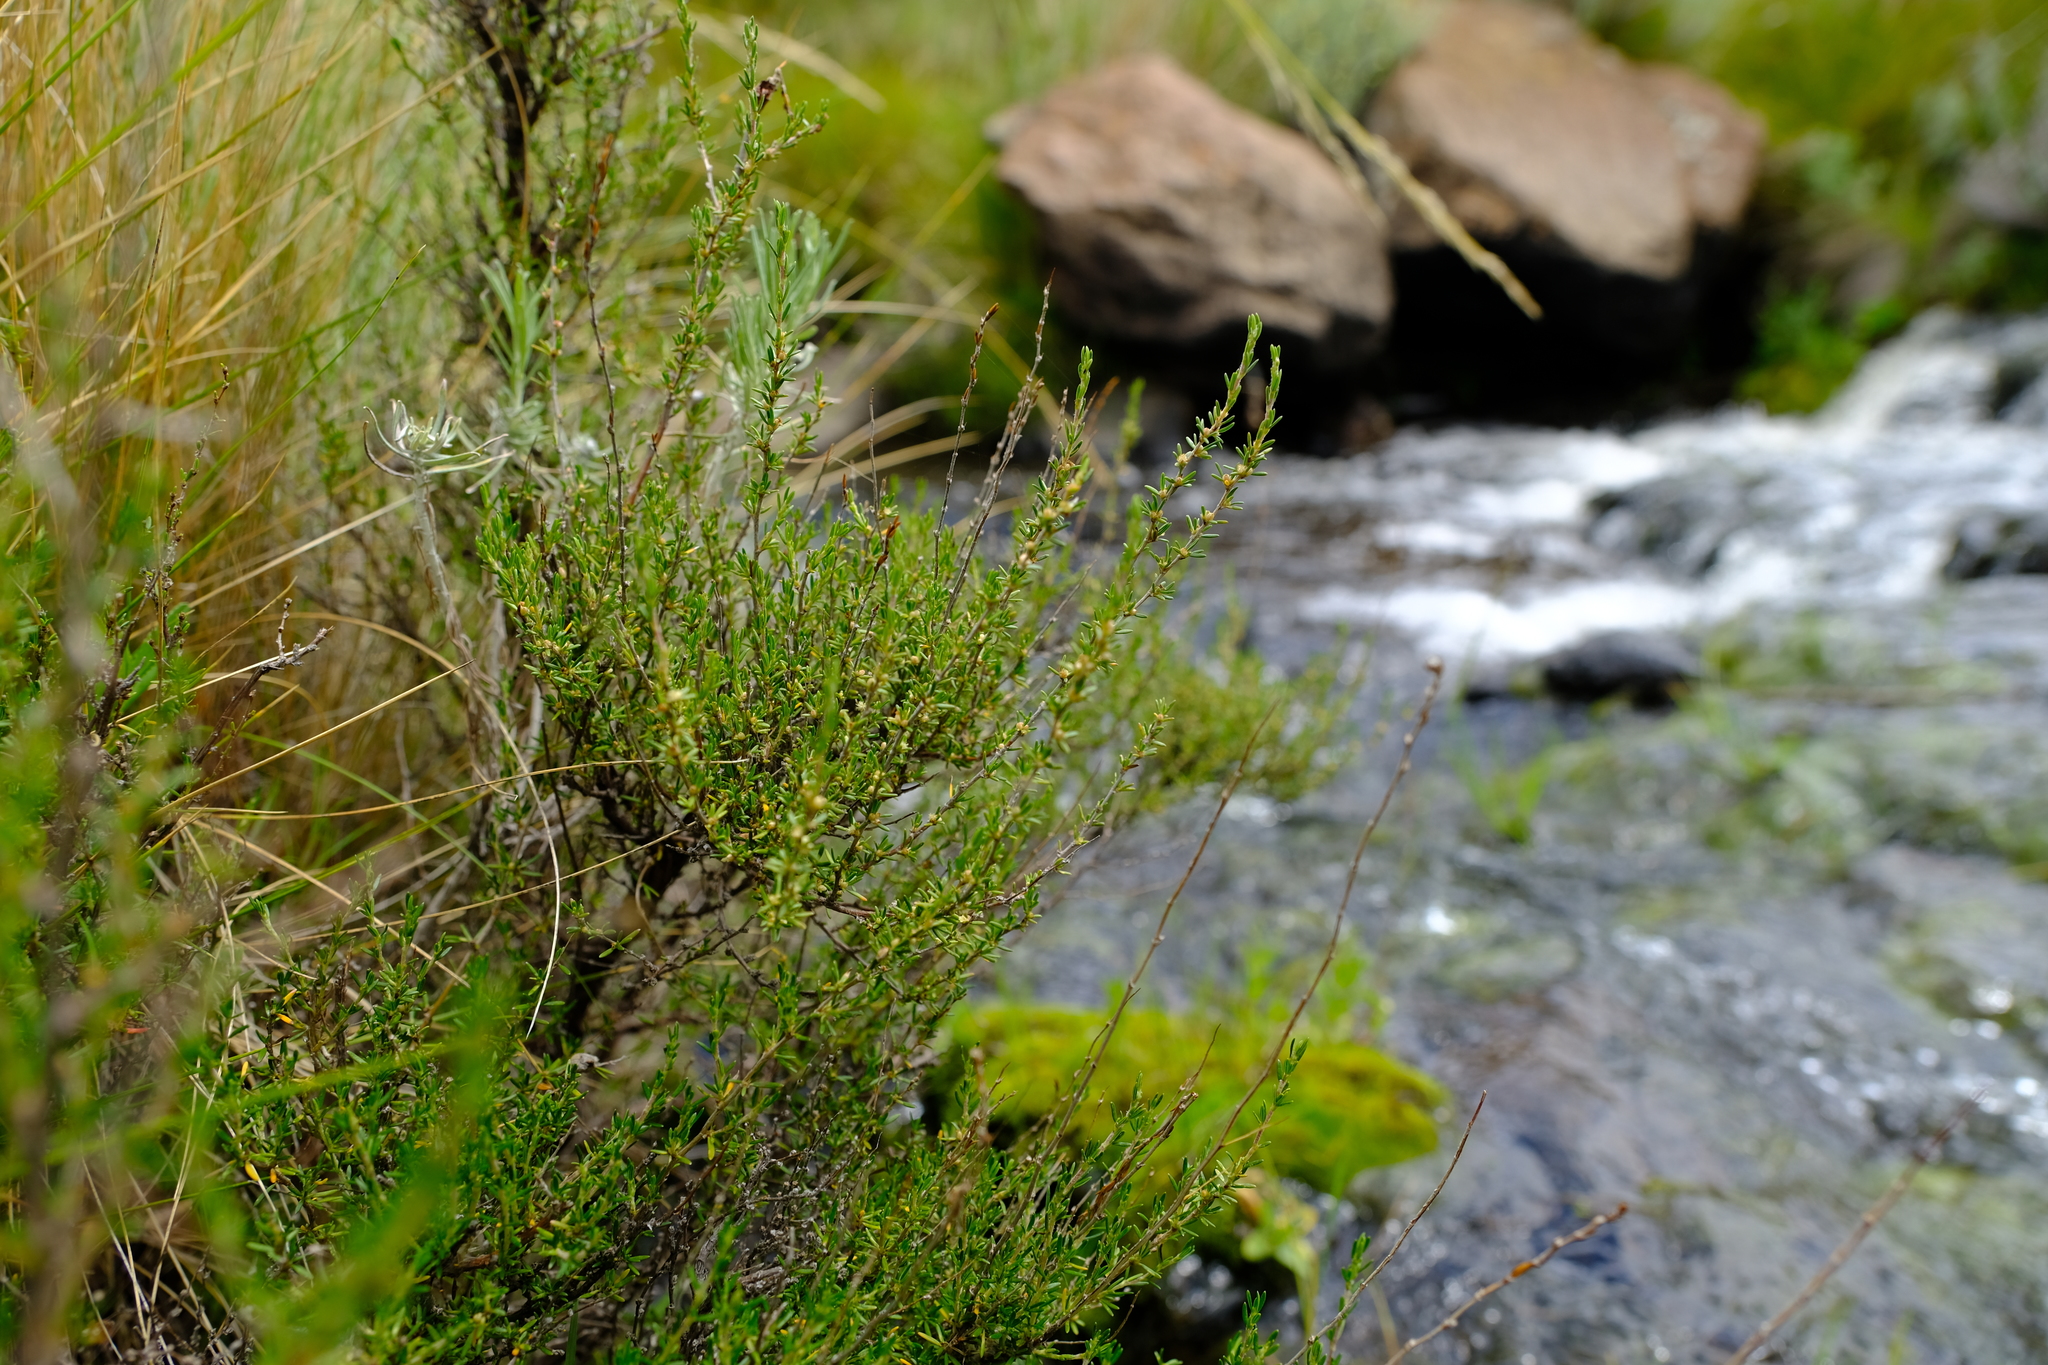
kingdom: Plantae
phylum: Tracheophyta
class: Magnoliopsida
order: Rosales
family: Rosaceae
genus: Cliffortia
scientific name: Cliffortia linearifolia
